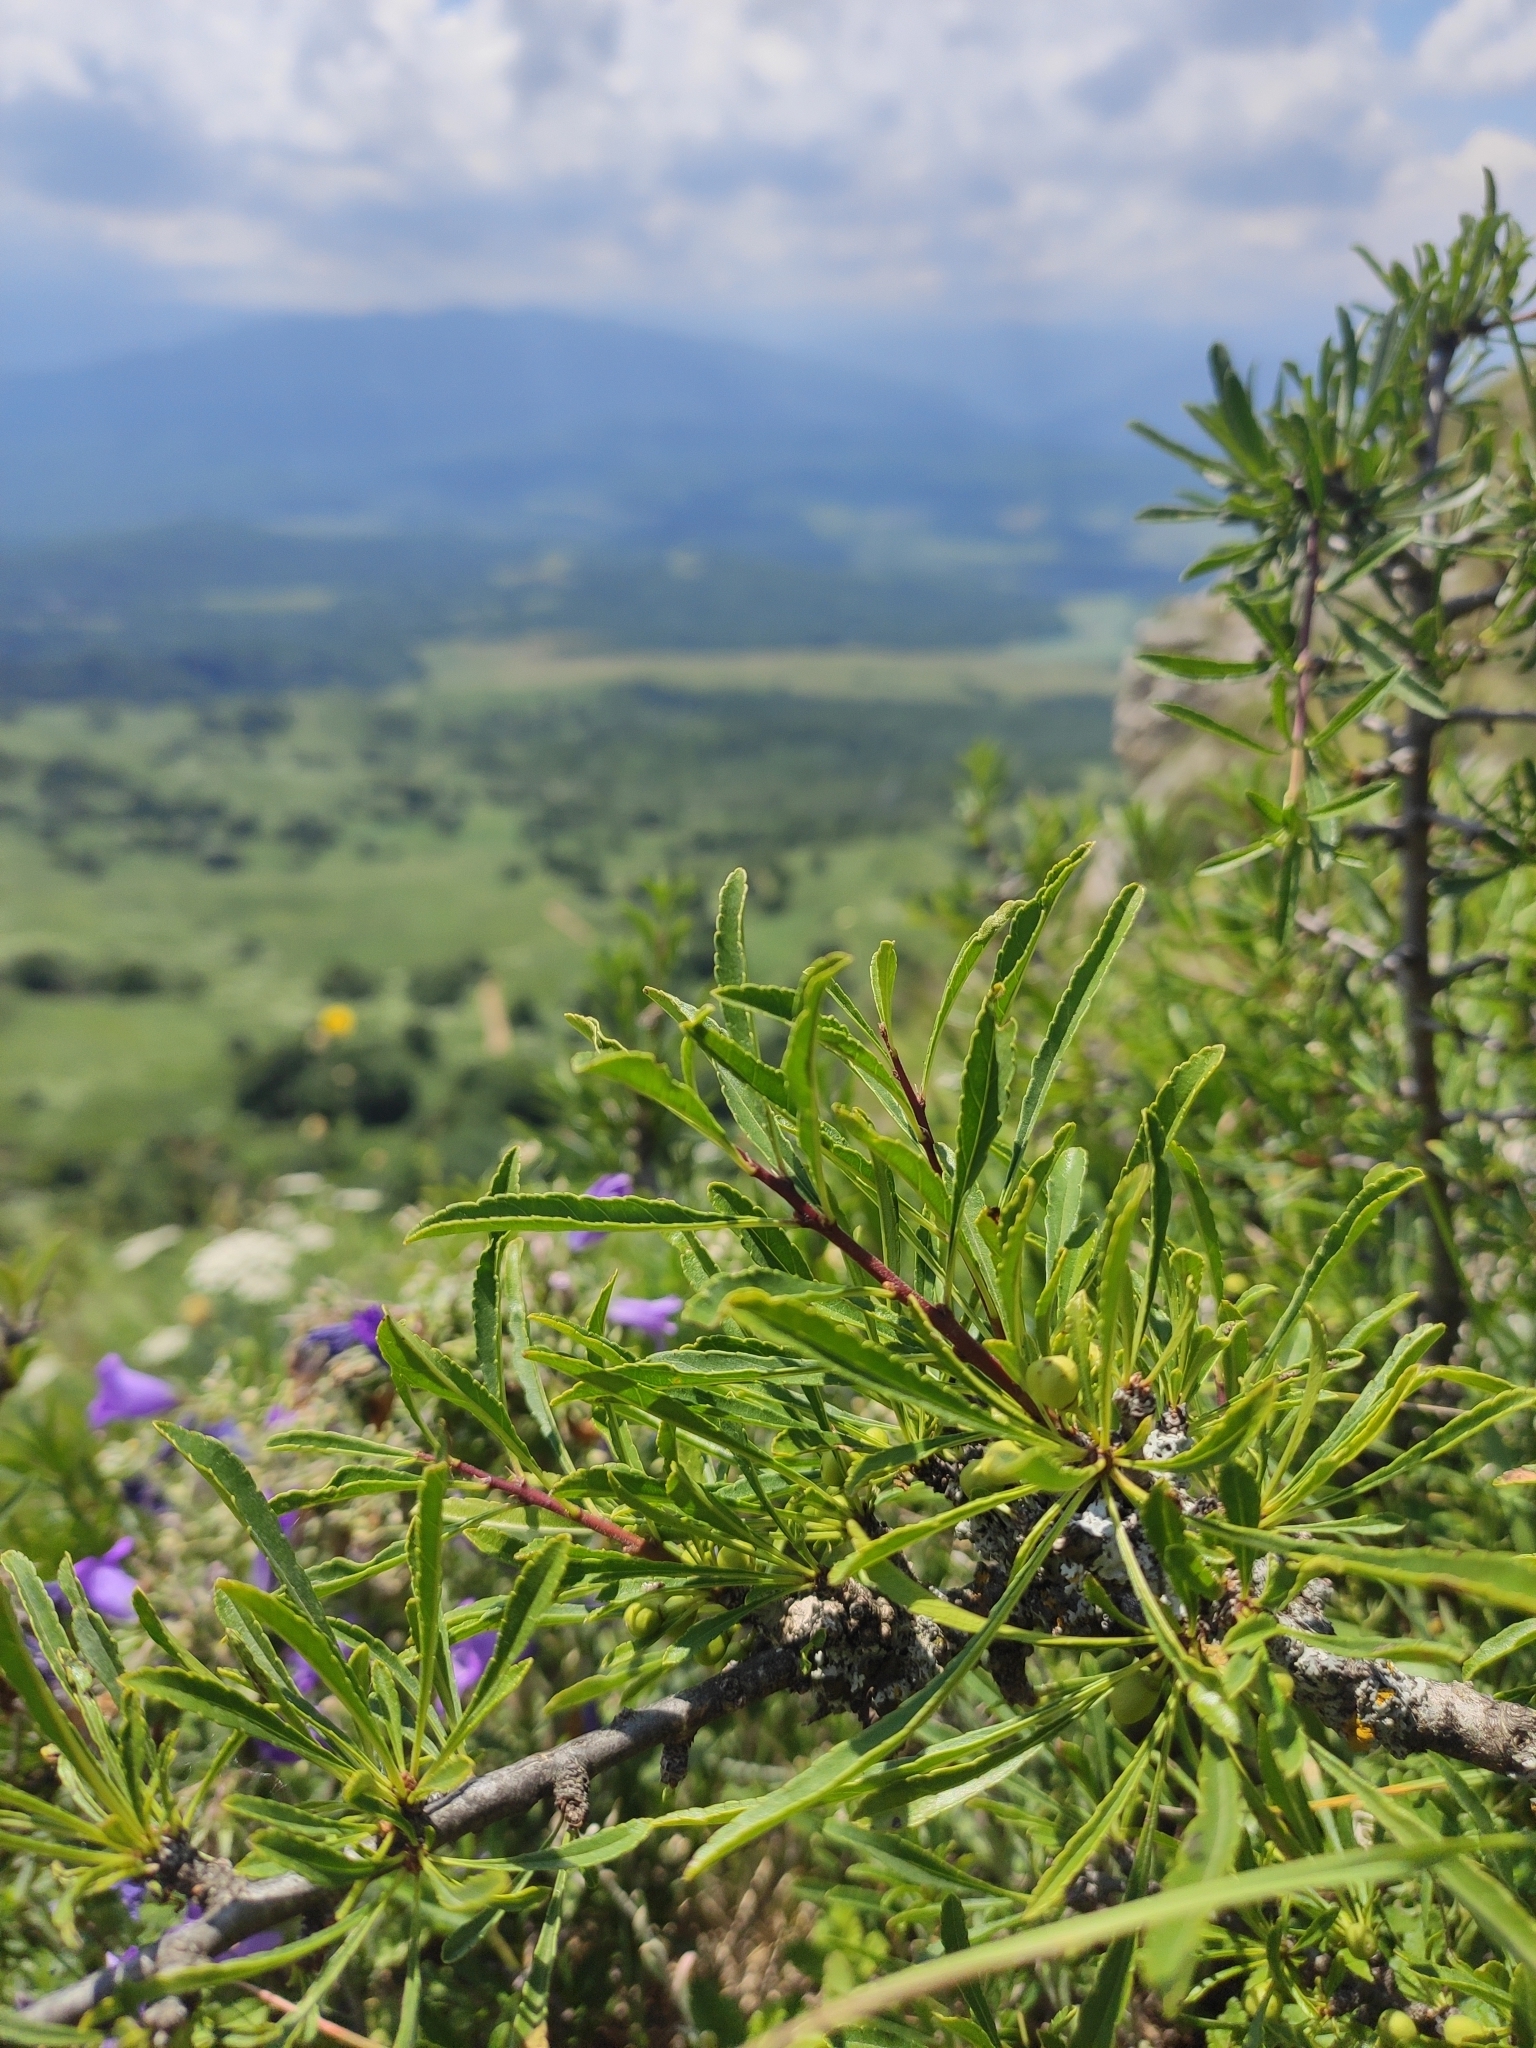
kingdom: Plantae
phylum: Tracheophyta
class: Magnoliopsida
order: Rosales
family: Rhamnaceae
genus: Rhamnus
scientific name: Rhamnus erythroxyloides
